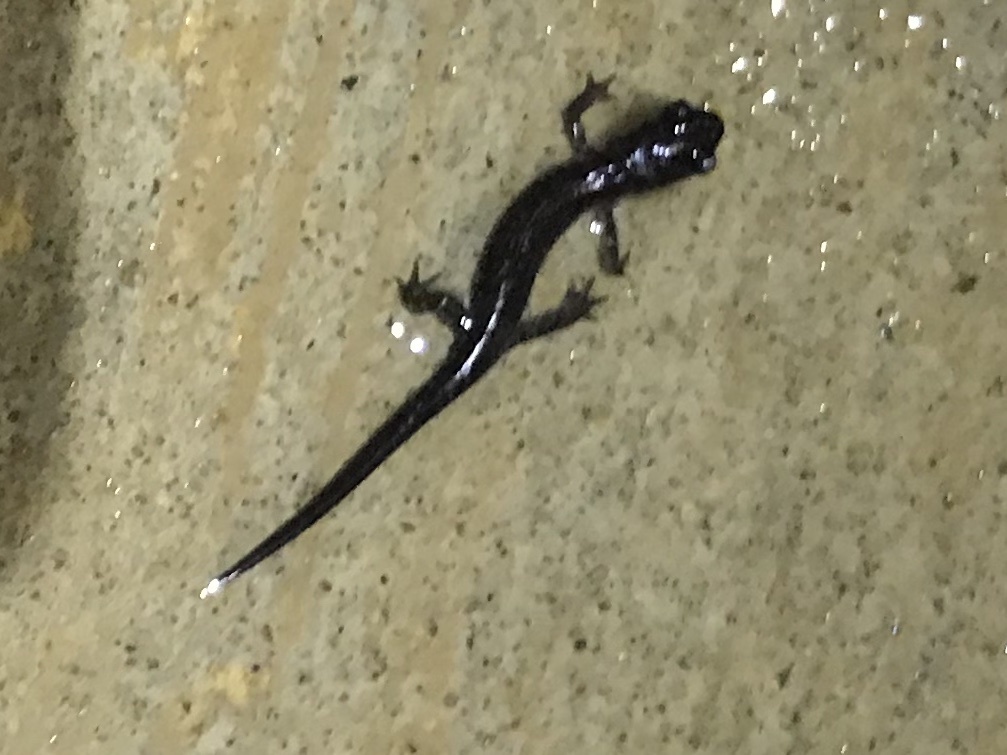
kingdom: Animalia
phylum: Chordata
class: Amphibia
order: Caudata
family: Plethodontidae
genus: Plethodon
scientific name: Plethodon glutinosus
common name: Northern slimy salamander
